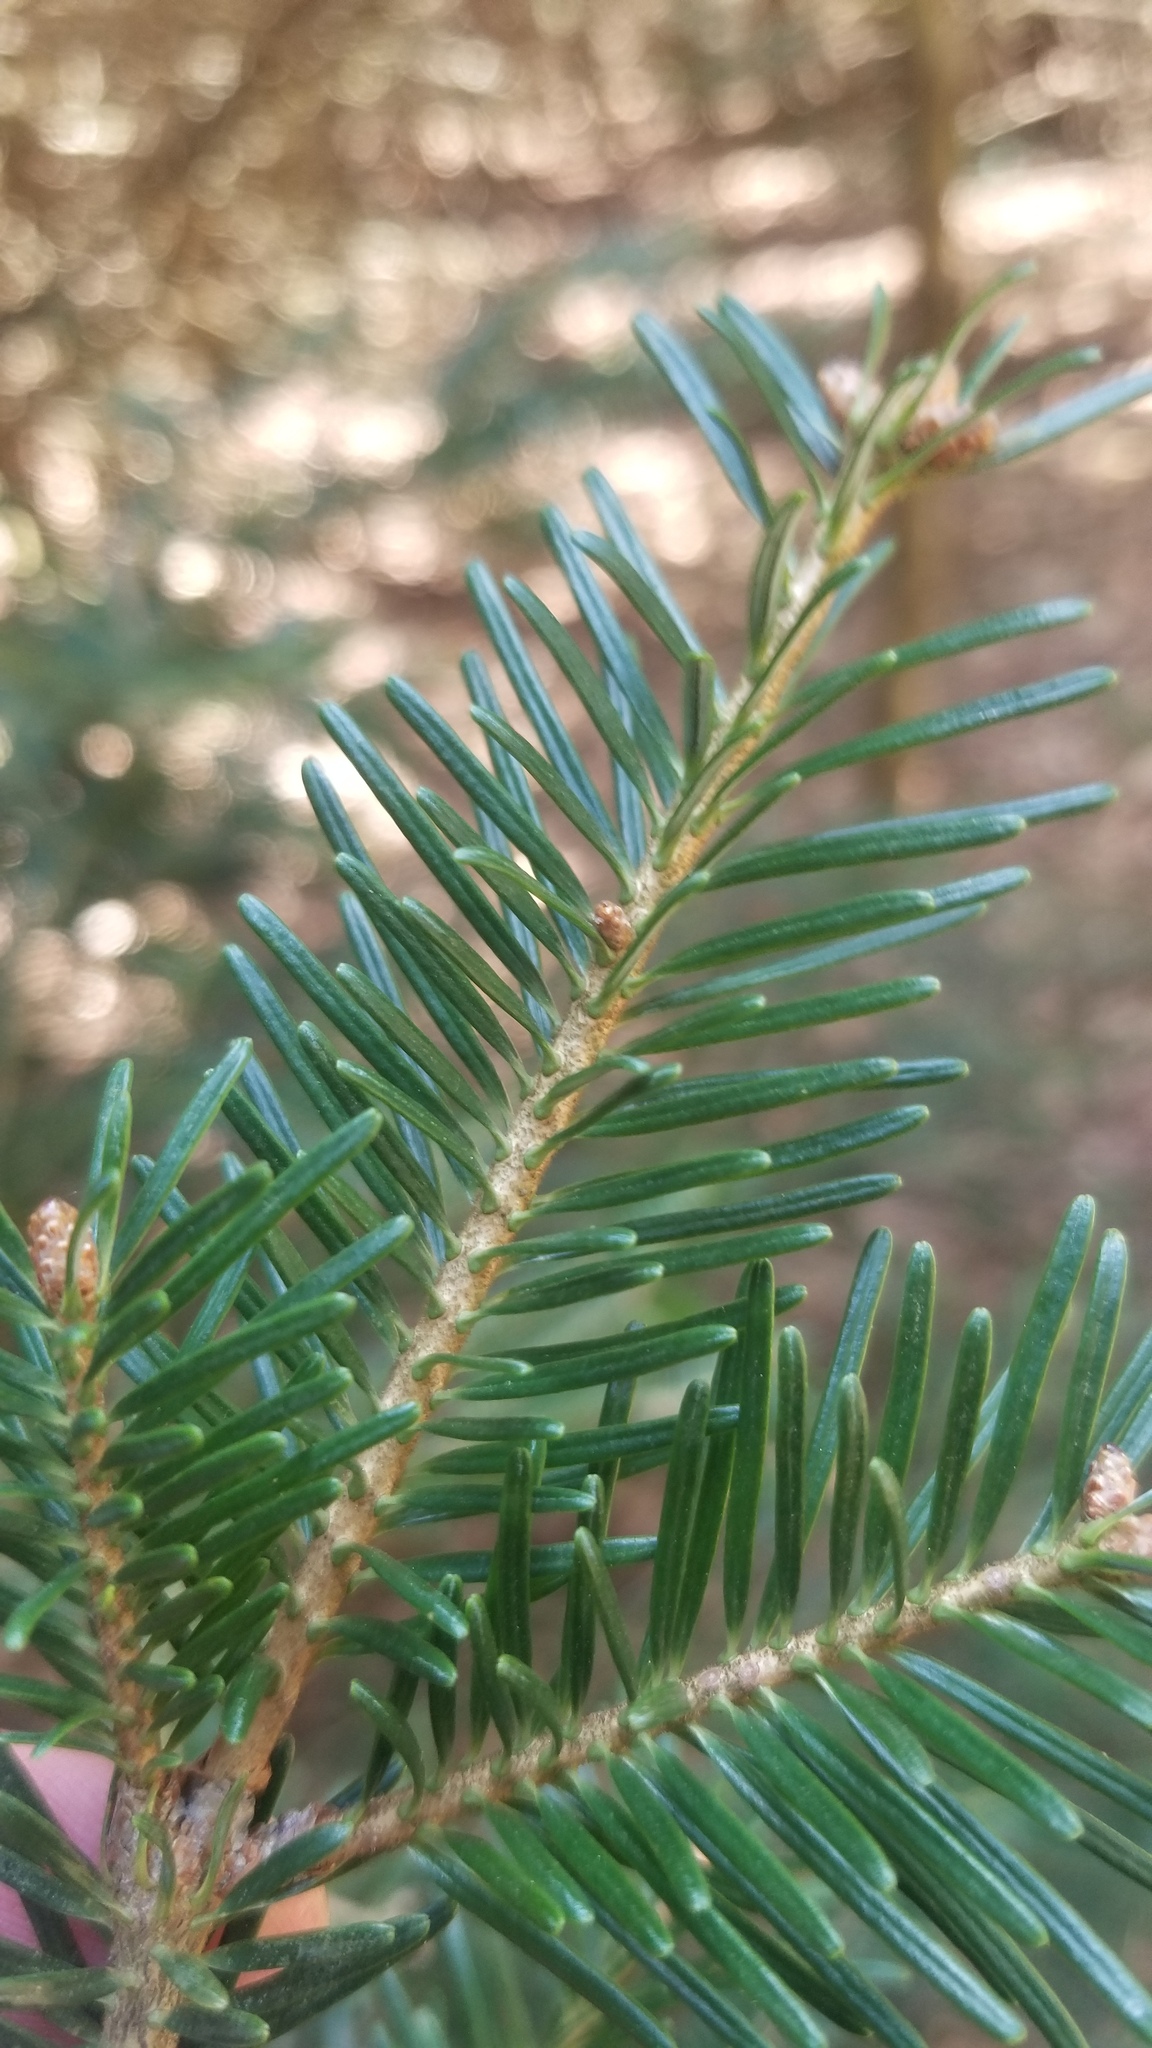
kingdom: Plantae
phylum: Tracheophyta
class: Pinopsida
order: Pinales
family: Pinaceae
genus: Abies
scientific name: Abies balsamea
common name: Balsam fir
